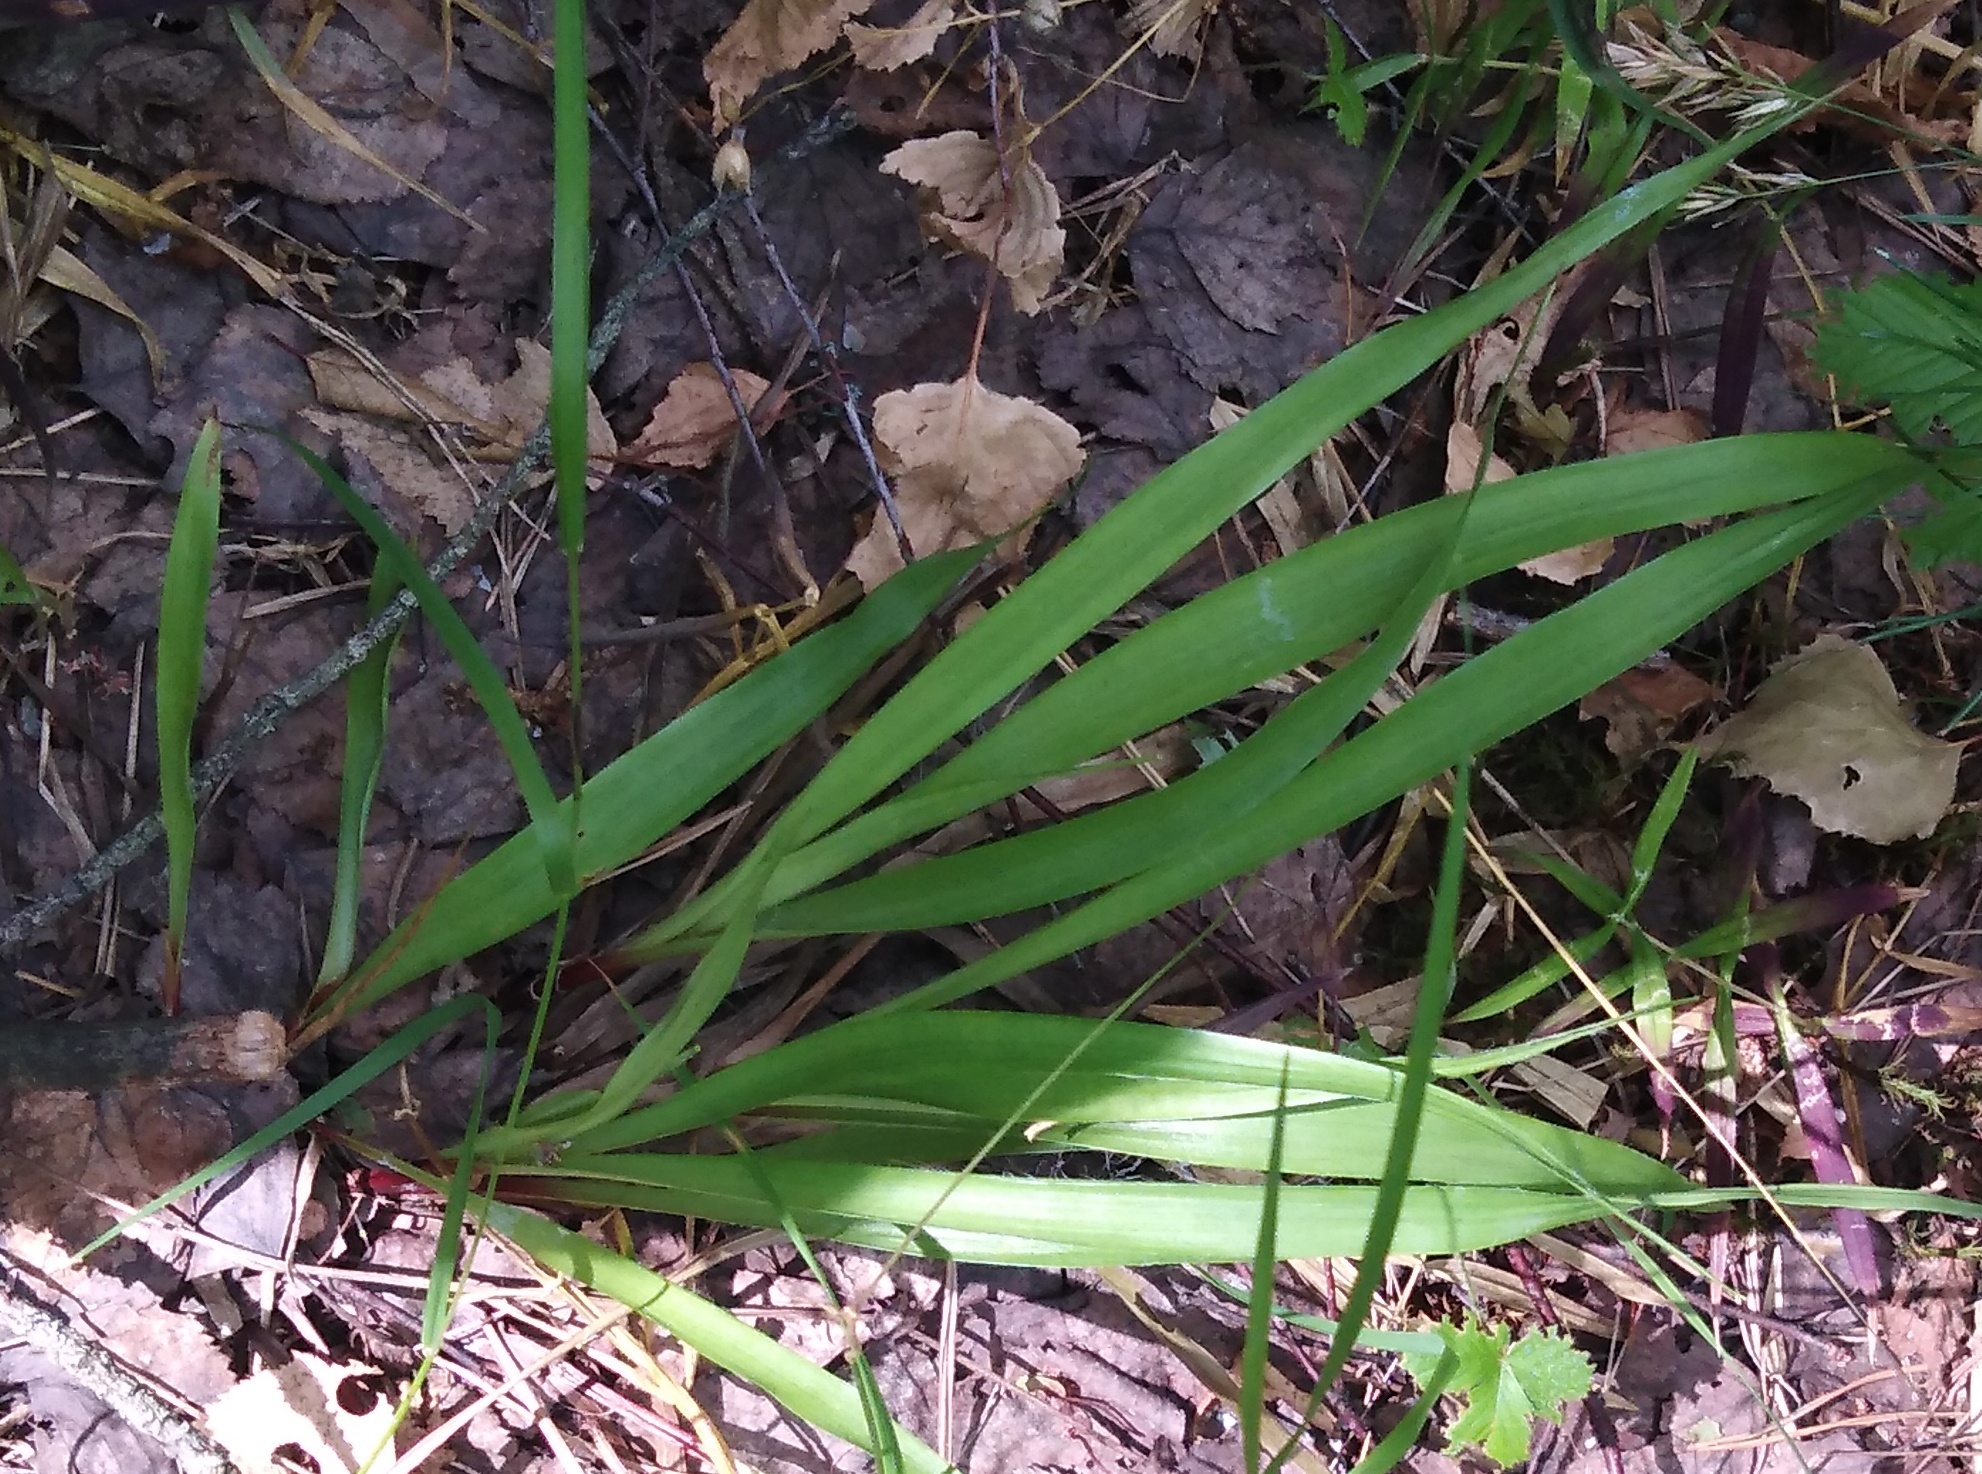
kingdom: Plantae
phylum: Tracheophyta
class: Liliopsida
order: Poales
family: Juncaceae
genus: Luzula
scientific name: Luzula pilosa
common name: Hairy wood-rush
